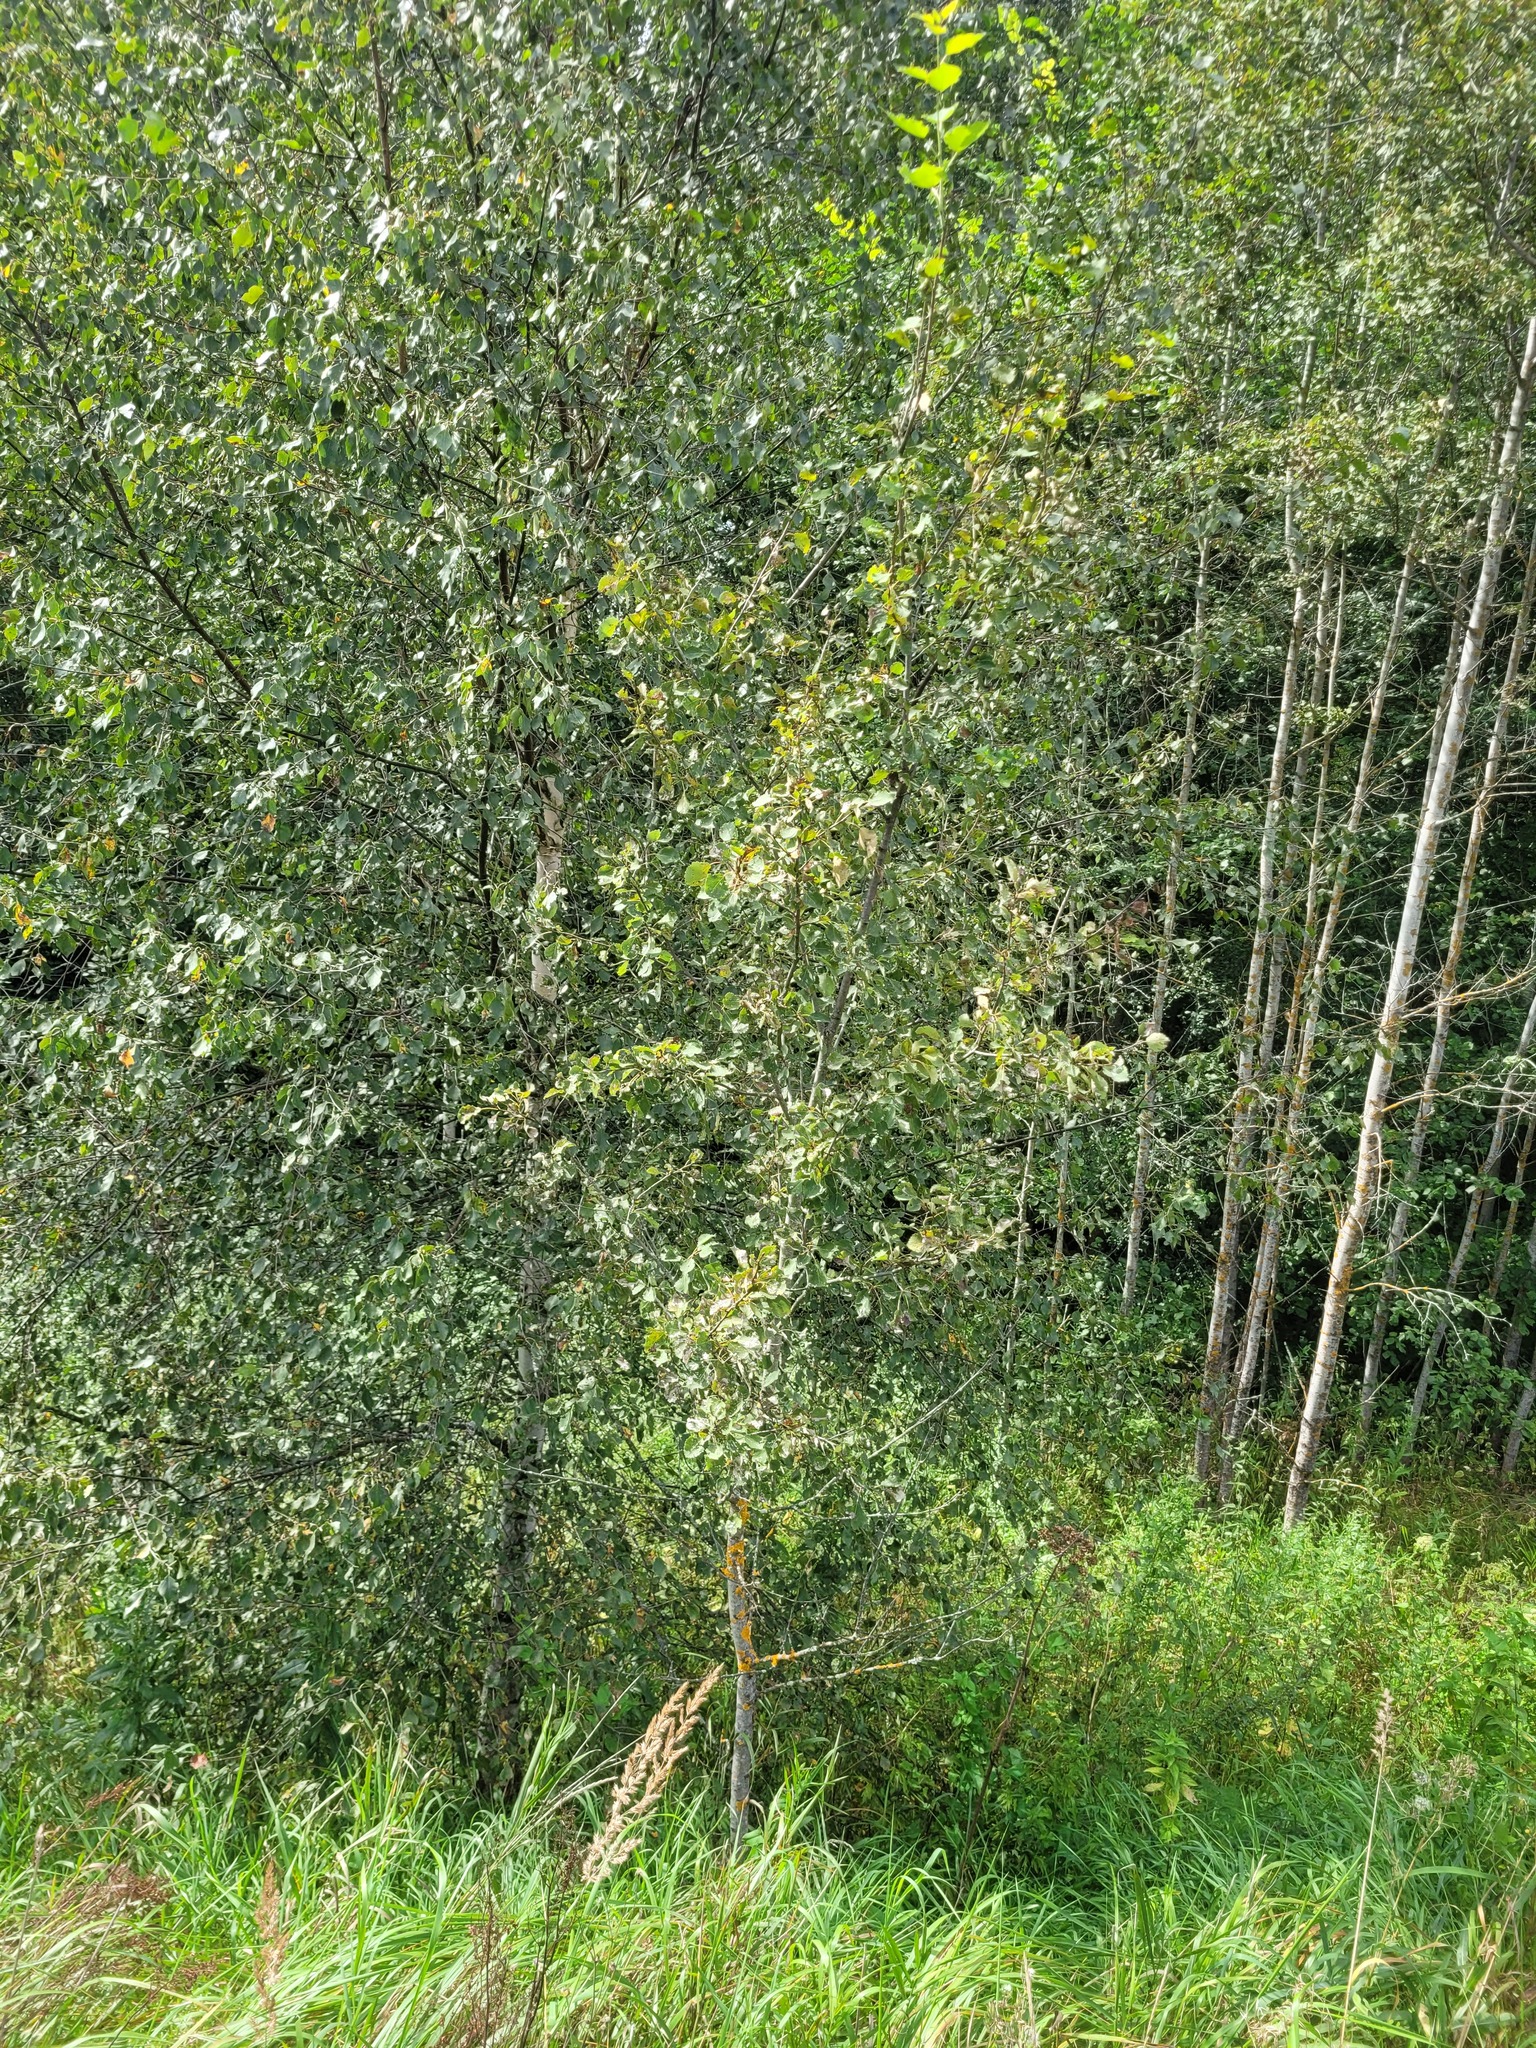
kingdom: Plantae
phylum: Tracheophyta
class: Magnoliopsida
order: Malpighiales
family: Salicaceae
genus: Populus
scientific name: Populus tremula
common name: European aspen
